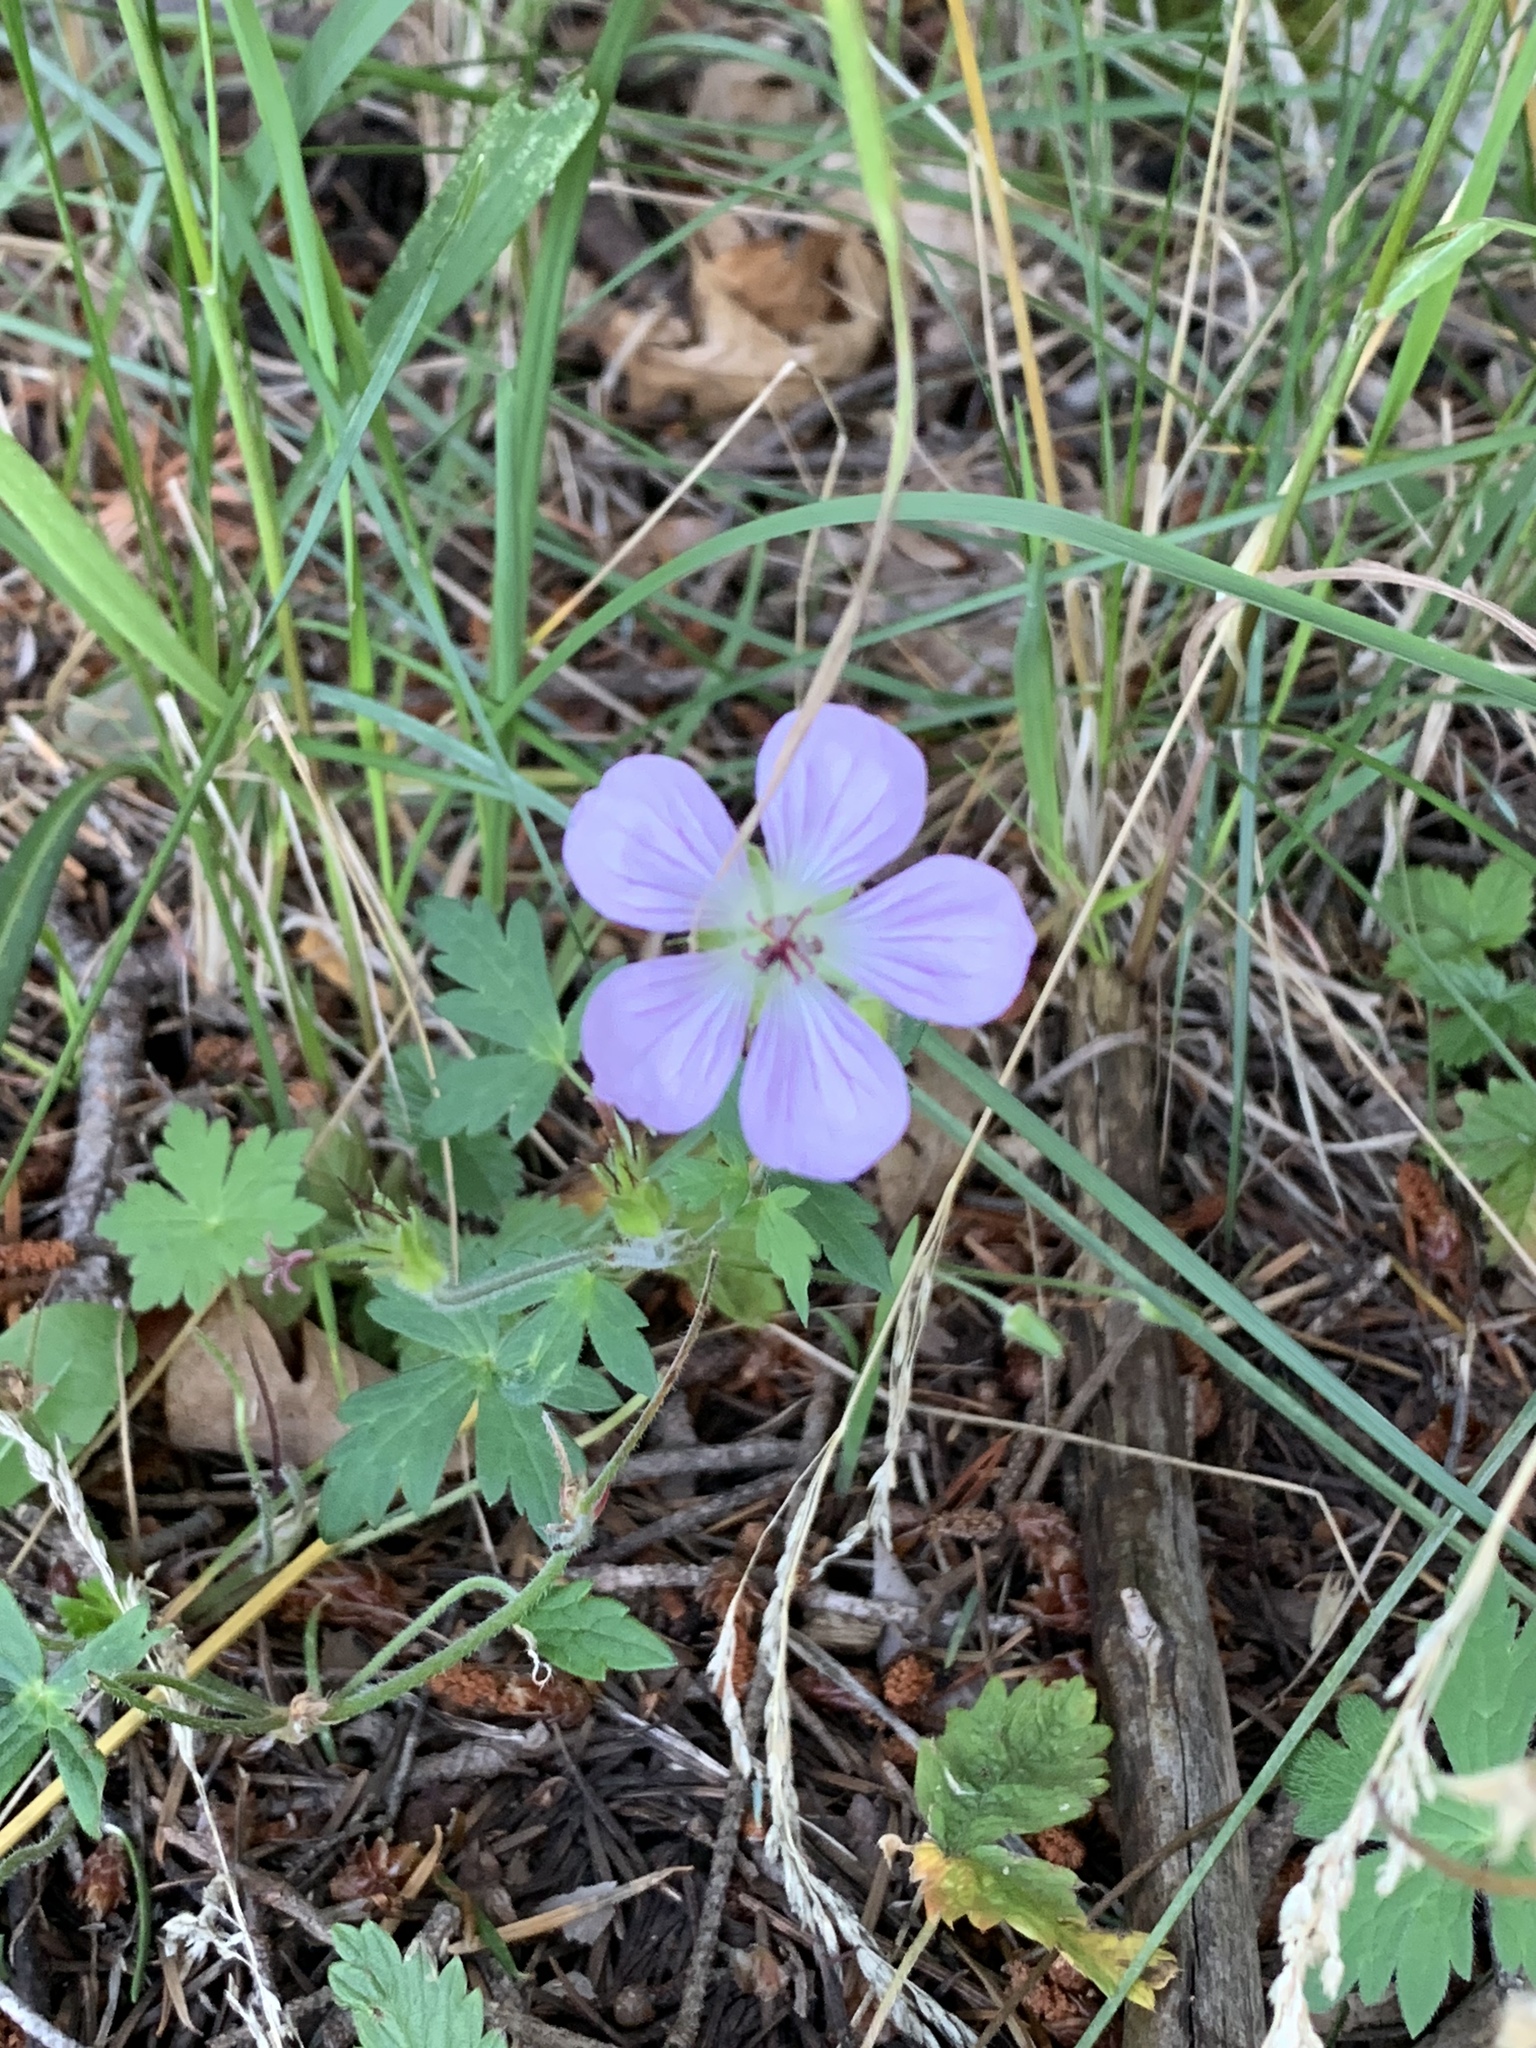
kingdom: Plantae
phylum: Tracheophyta
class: Magnoliopsida
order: Geraniales
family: Geraniaceae
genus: Geranium
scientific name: Geranium richardsonii
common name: Richardson's crane's-bill
